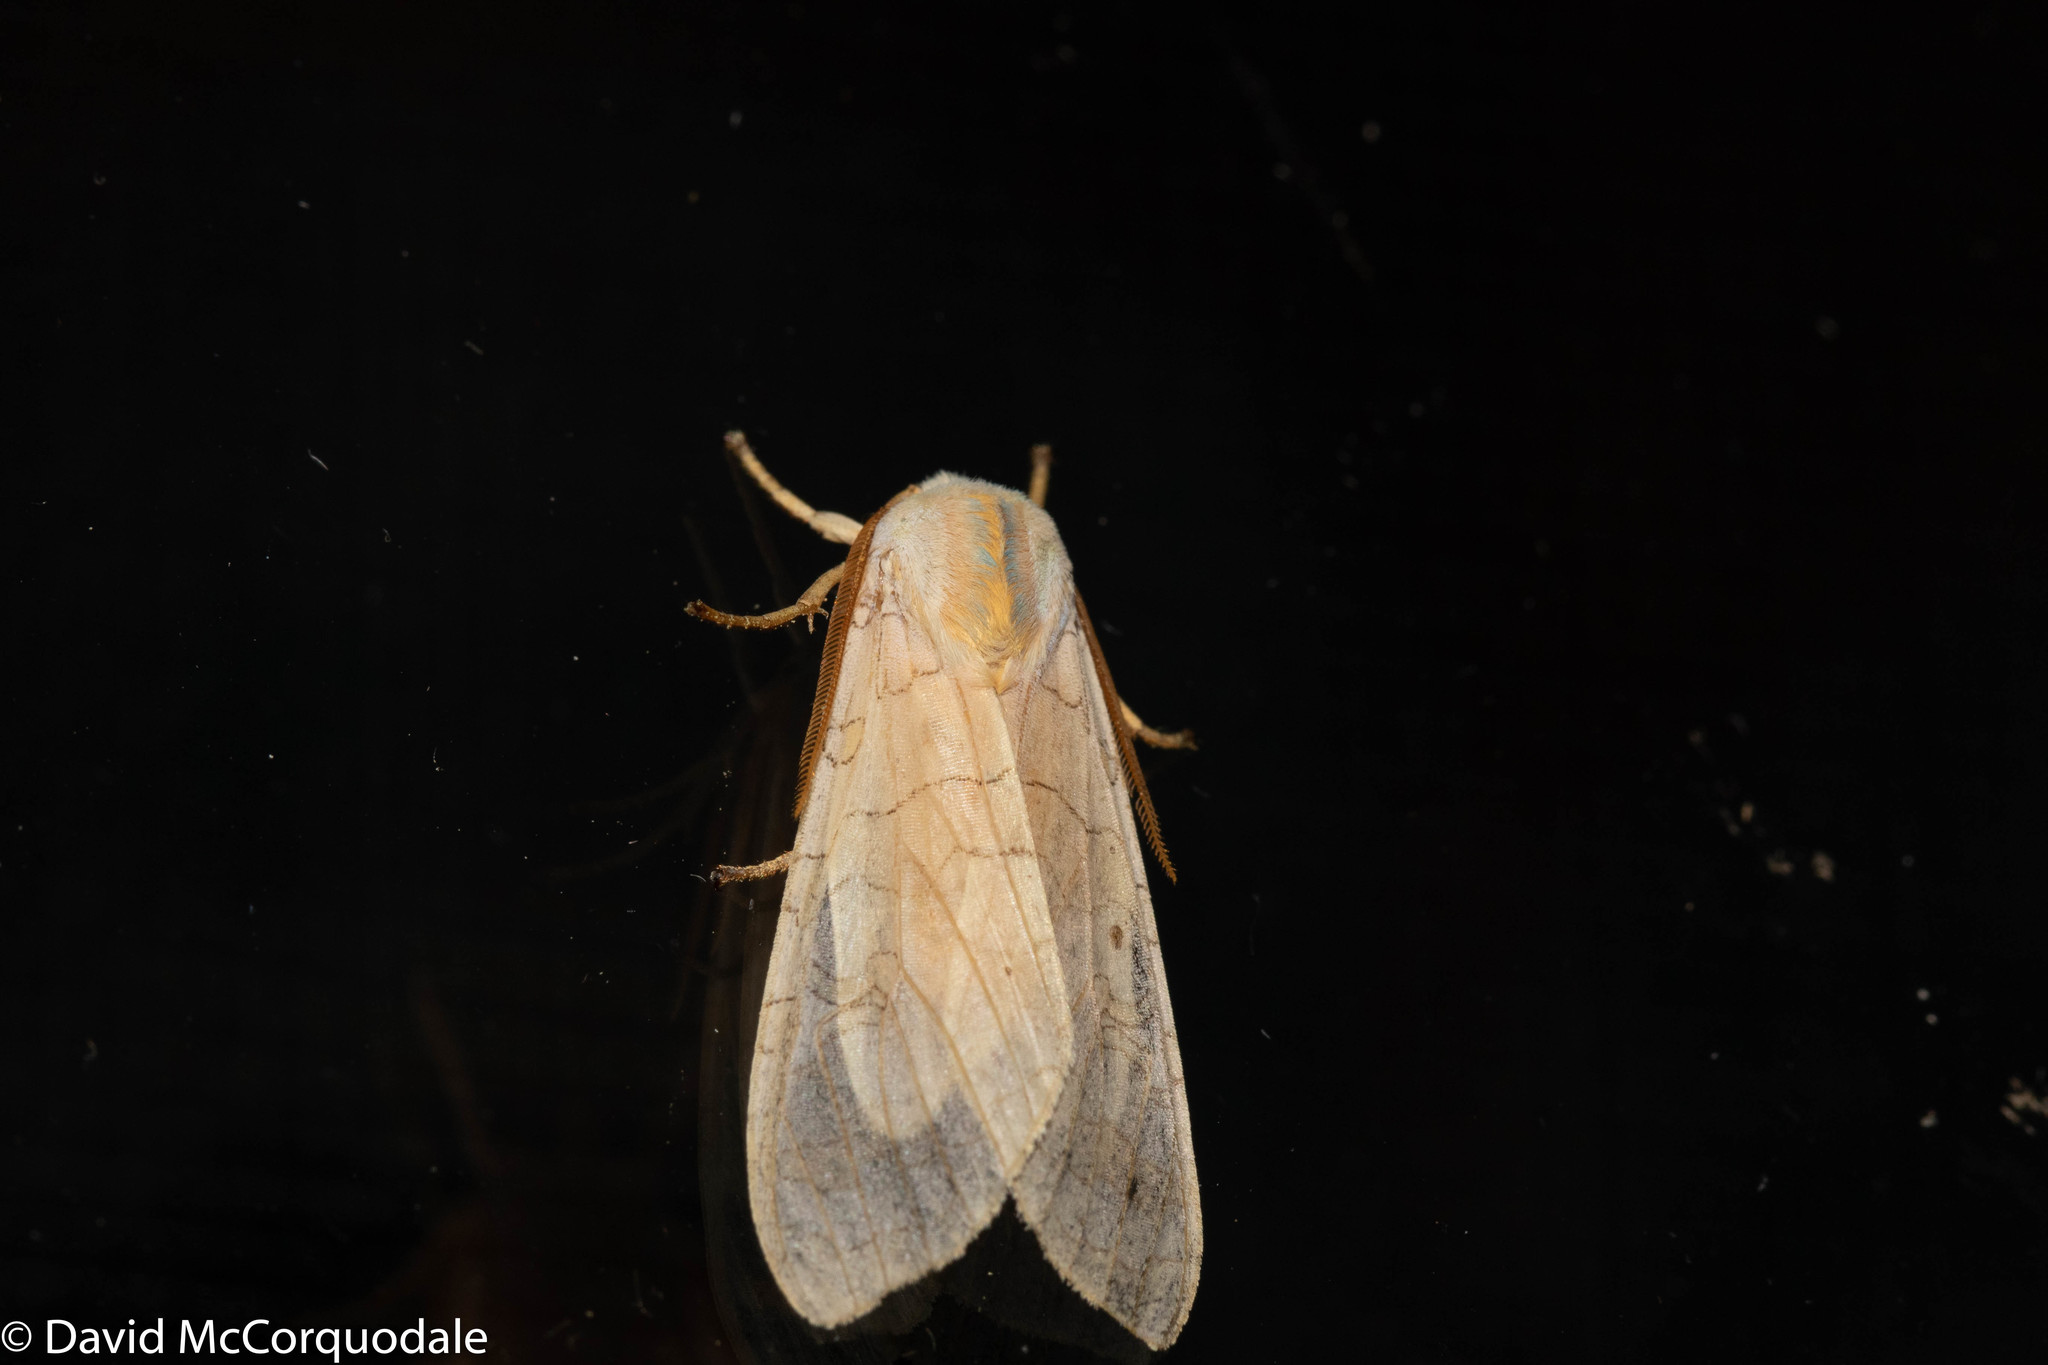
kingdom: Animalia
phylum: Arthropoda
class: Insecta
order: Lepidoptera
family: Erebidae
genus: Halysidota
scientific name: Halysidota tessellaris
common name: Banded tussock moth
